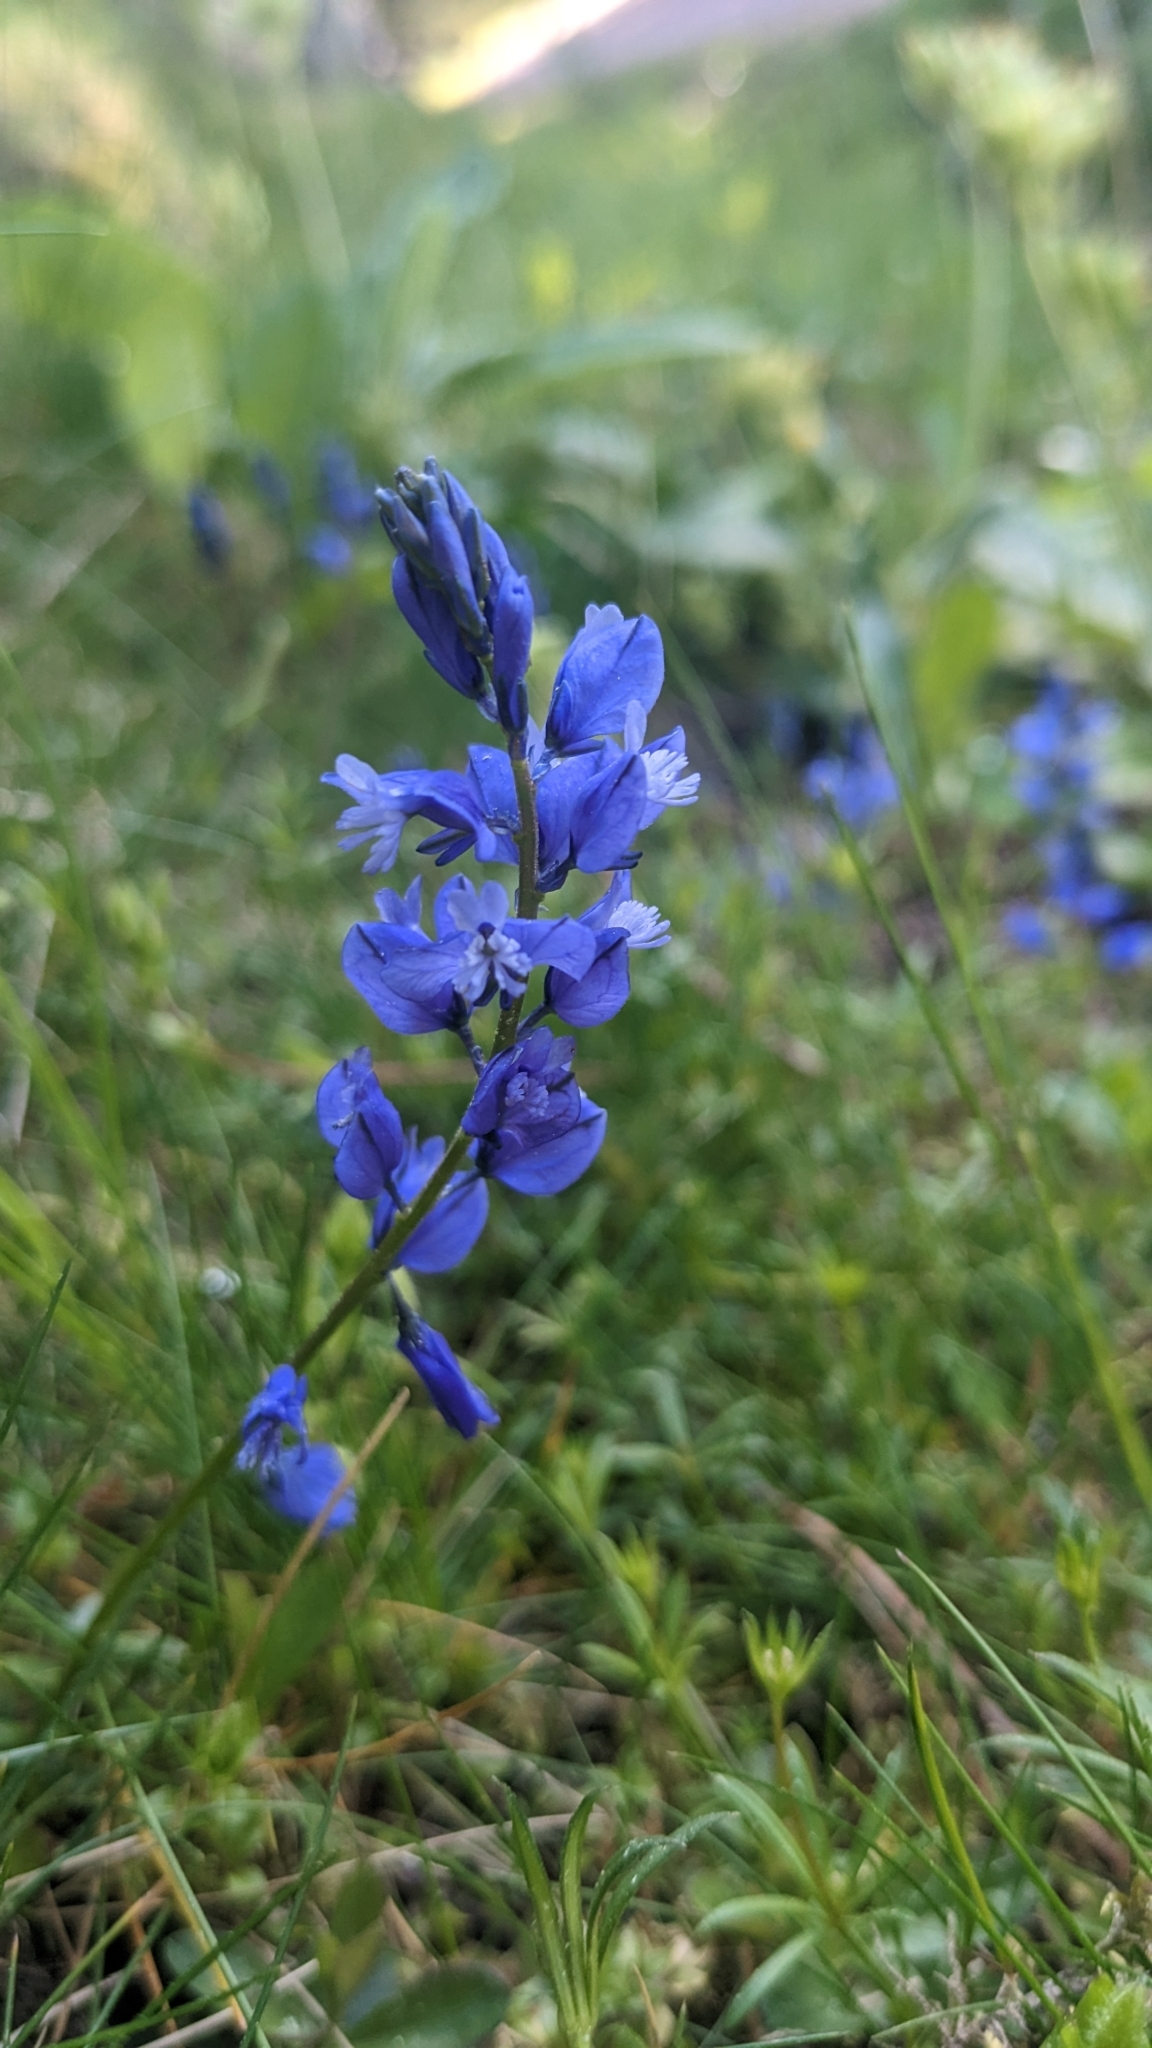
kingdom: Plantae
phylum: Tracheophyta
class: Magnoliopsida
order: Fabales
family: Polygalaceae
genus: Polygala
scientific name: Polygala vulgaris
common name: Common milkwort
